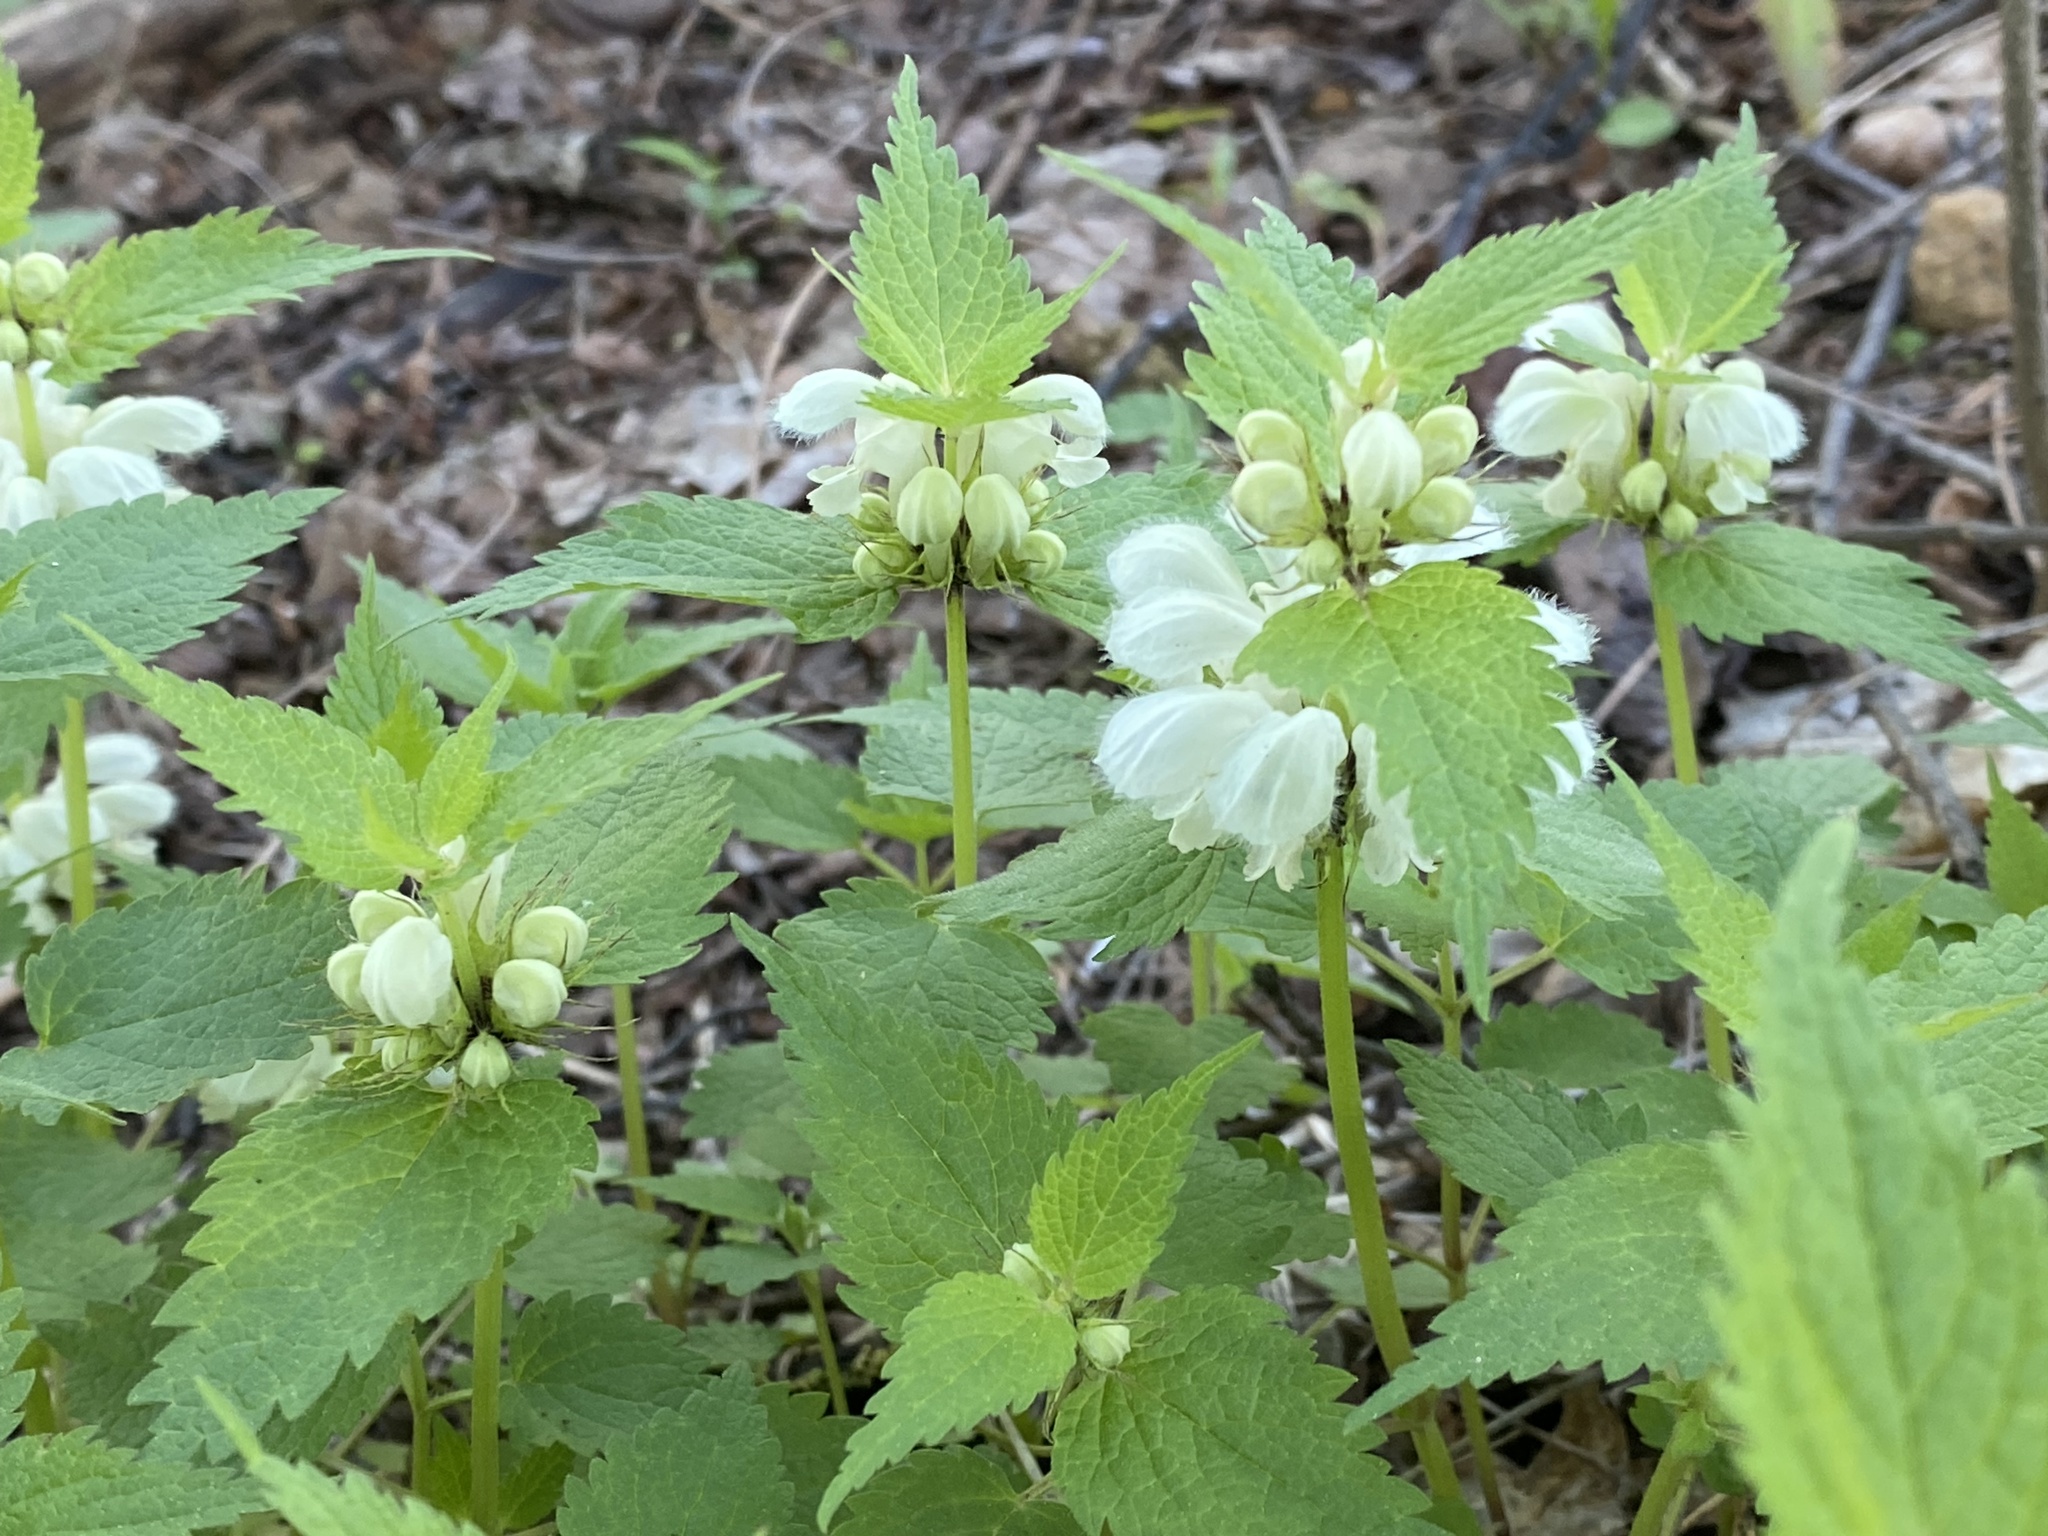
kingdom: Plantae
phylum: Tracheophyta
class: Magnoliopsida
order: Lamiales
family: Lamiaceae
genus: Lamium
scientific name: Lamium album
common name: White dead-nettle
